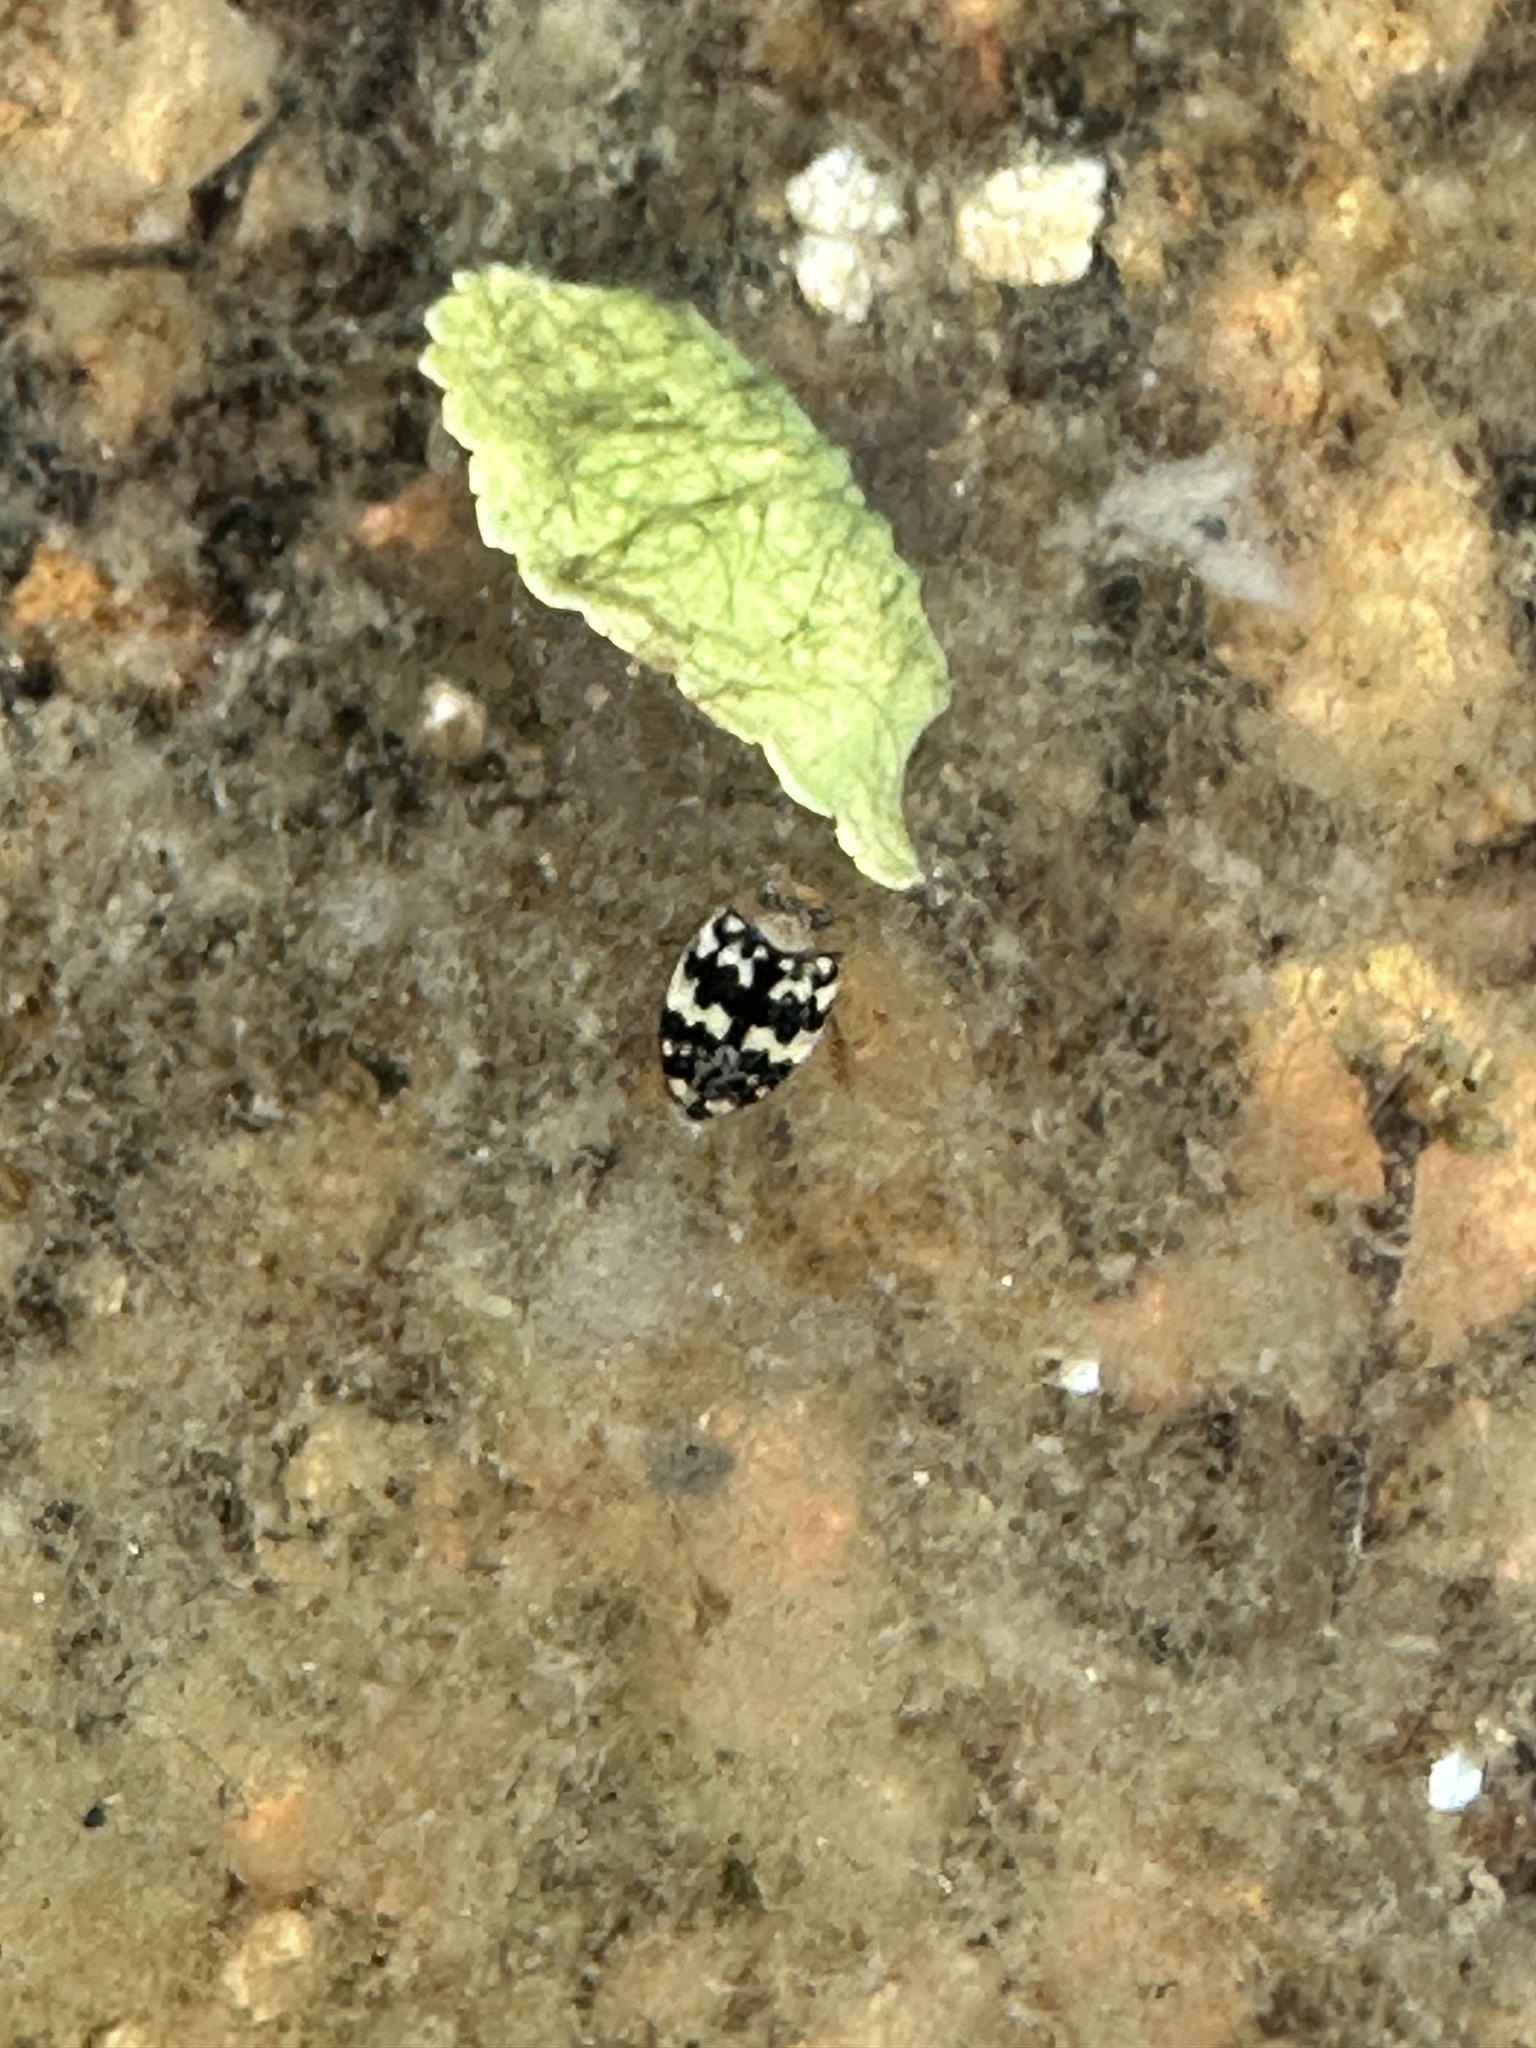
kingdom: Animalia
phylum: Arthropoda
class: Insecta
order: Coleoptera
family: Dytiscidae
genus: Laccophilus
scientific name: Laccophilus pictus
